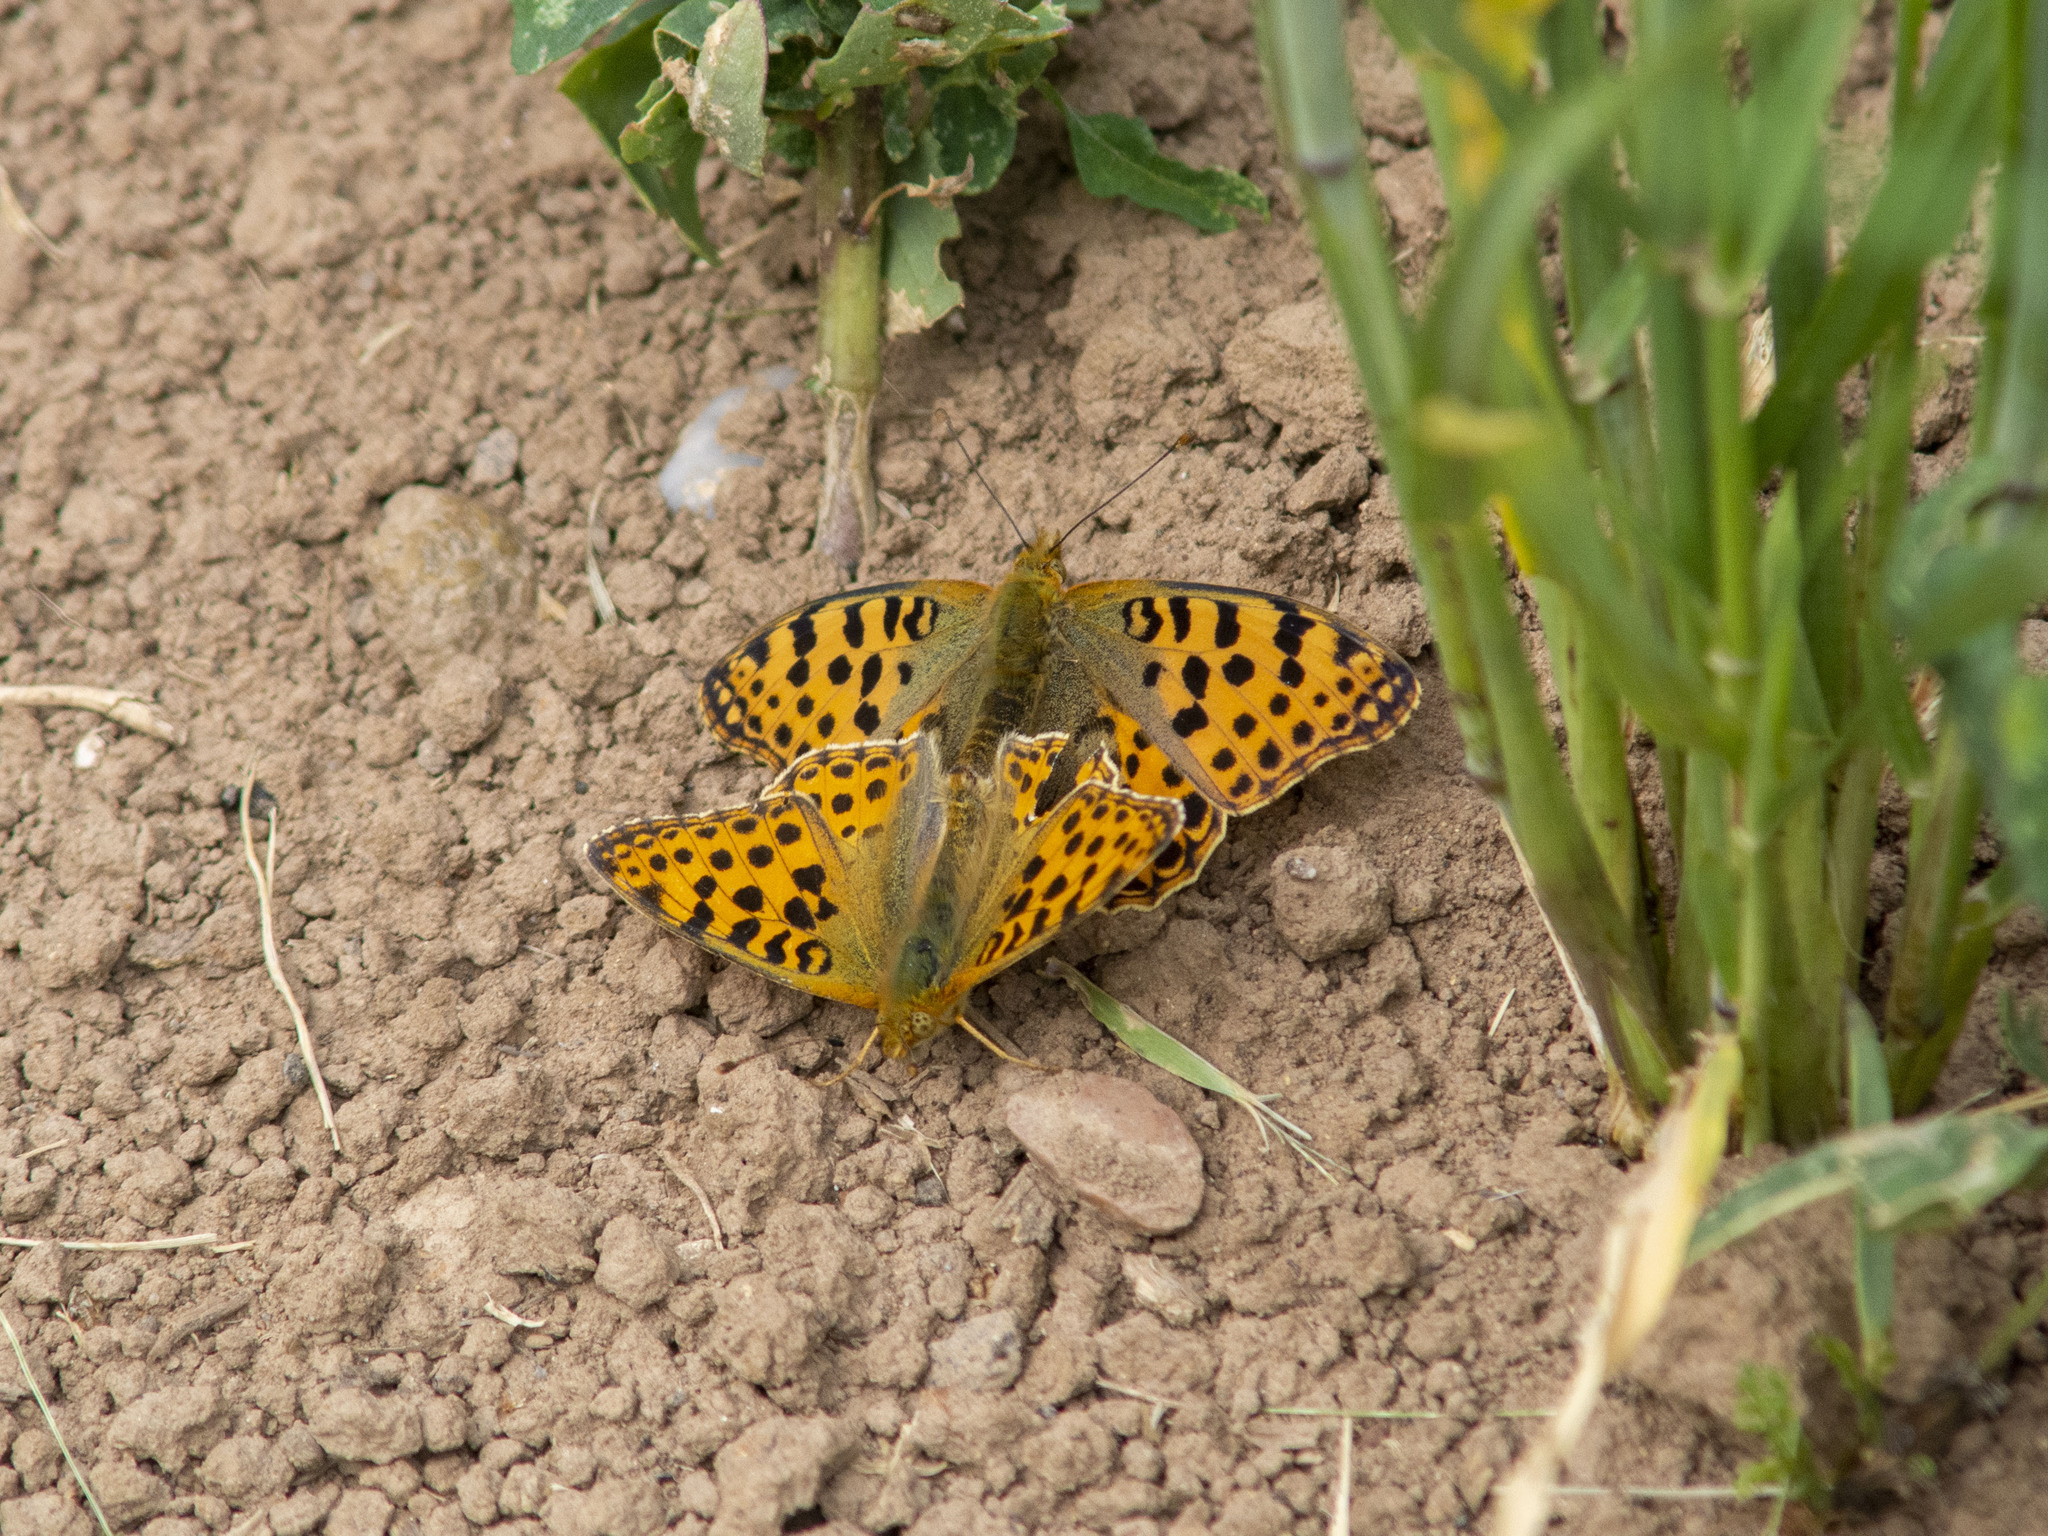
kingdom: Animalia
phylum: Arthropoda
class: Insecta
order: Lepidoptera
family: Nymphalidae
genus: Issoria
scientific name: Issoria lathonia
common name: Queen of spain fritillary
